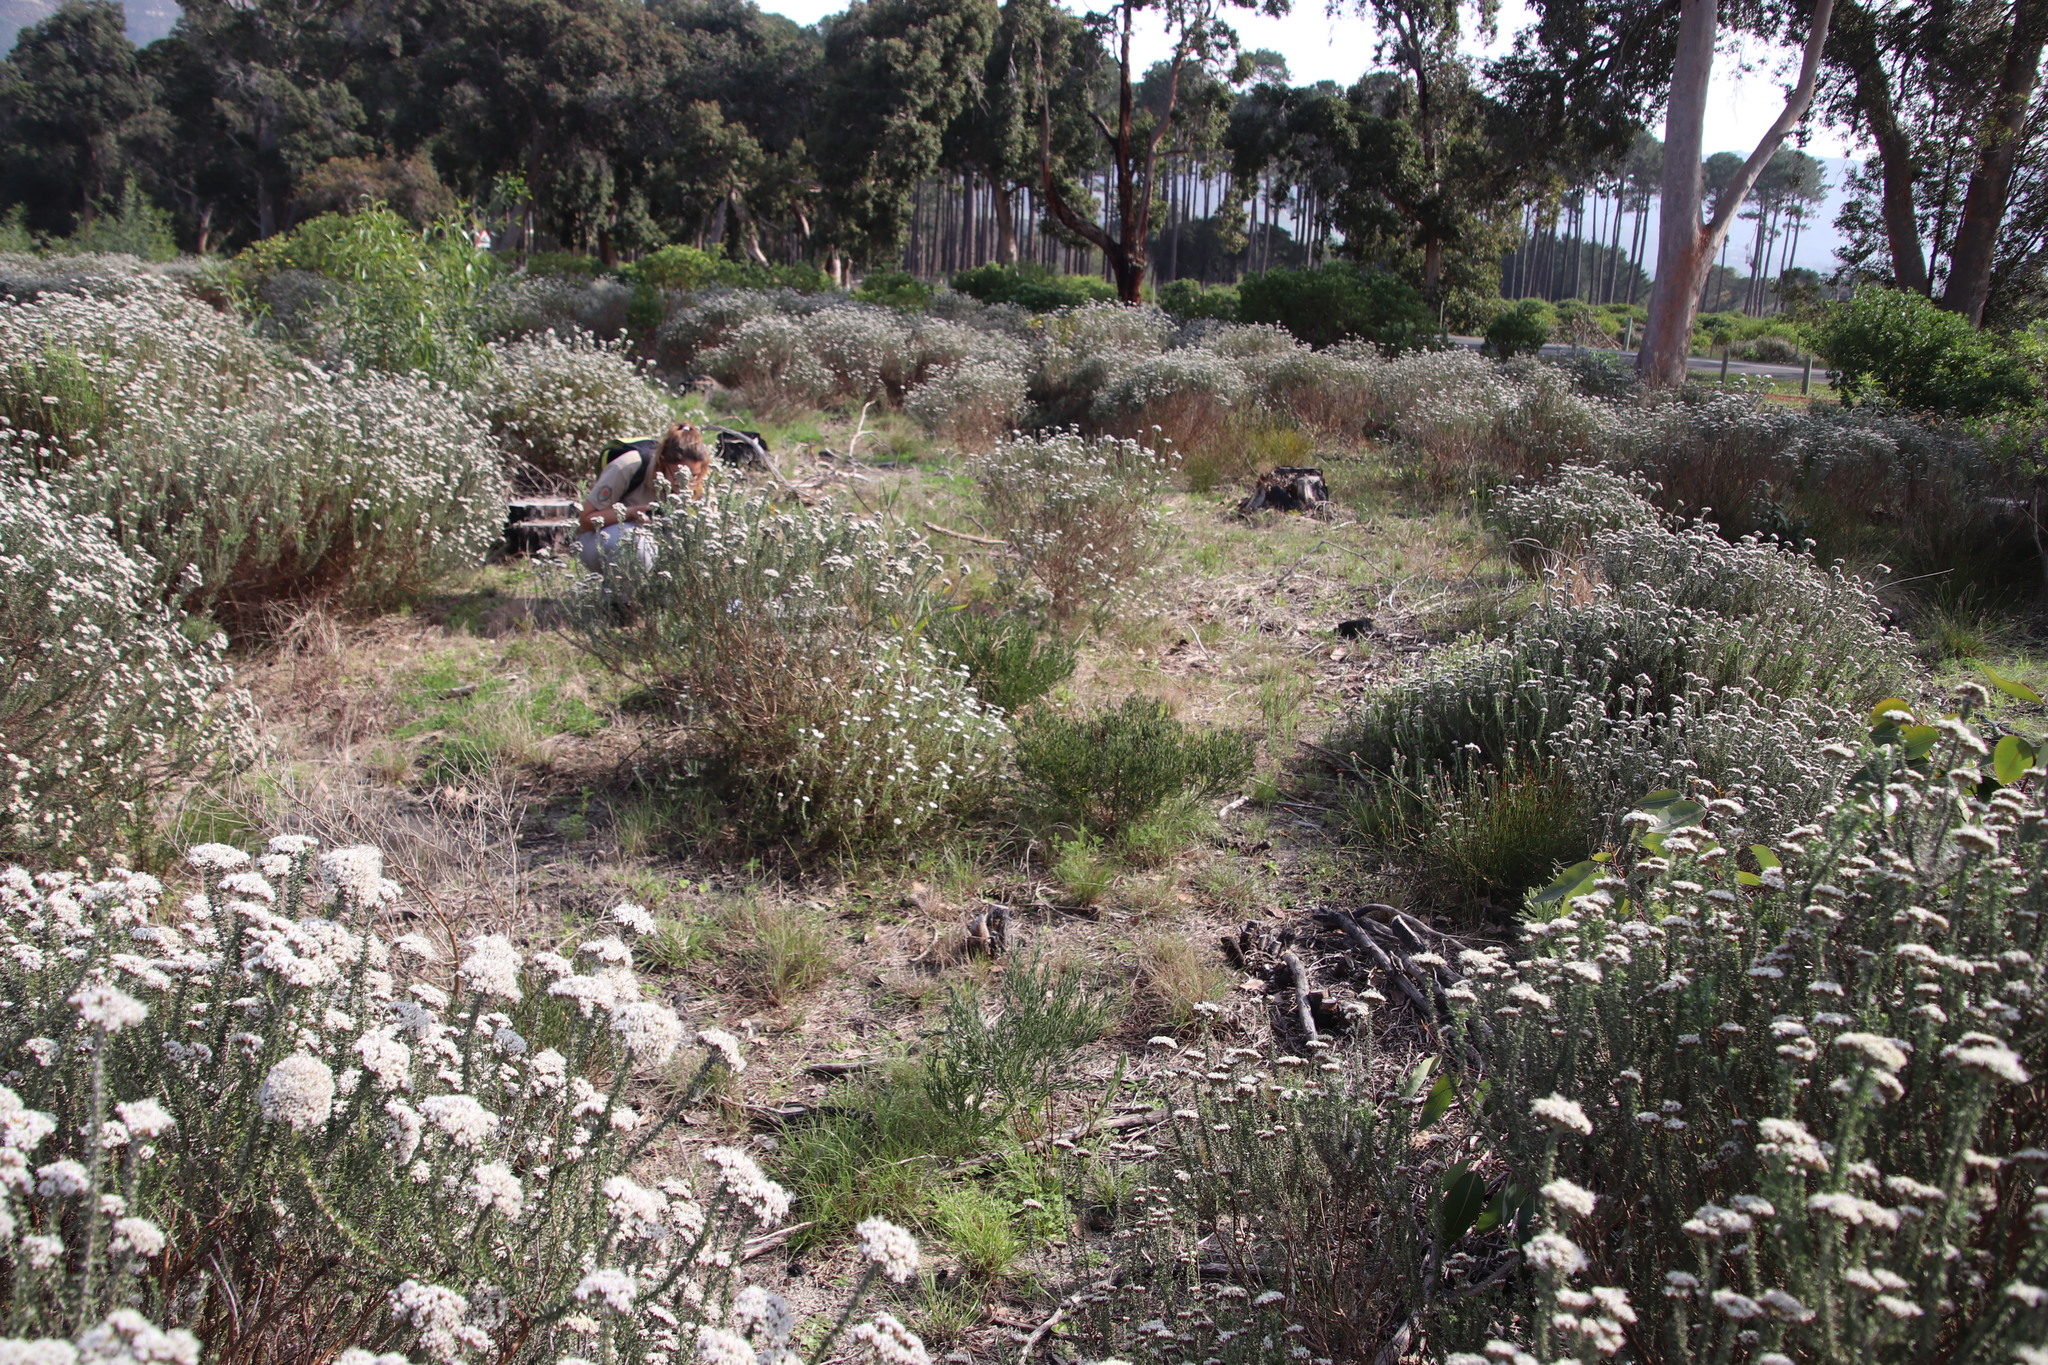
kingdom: Plantae
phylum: Tracheophyta
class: Magnoliopsida
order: Asterales
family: Asteraceae
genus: Metalasia
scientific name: Metalasia densa
